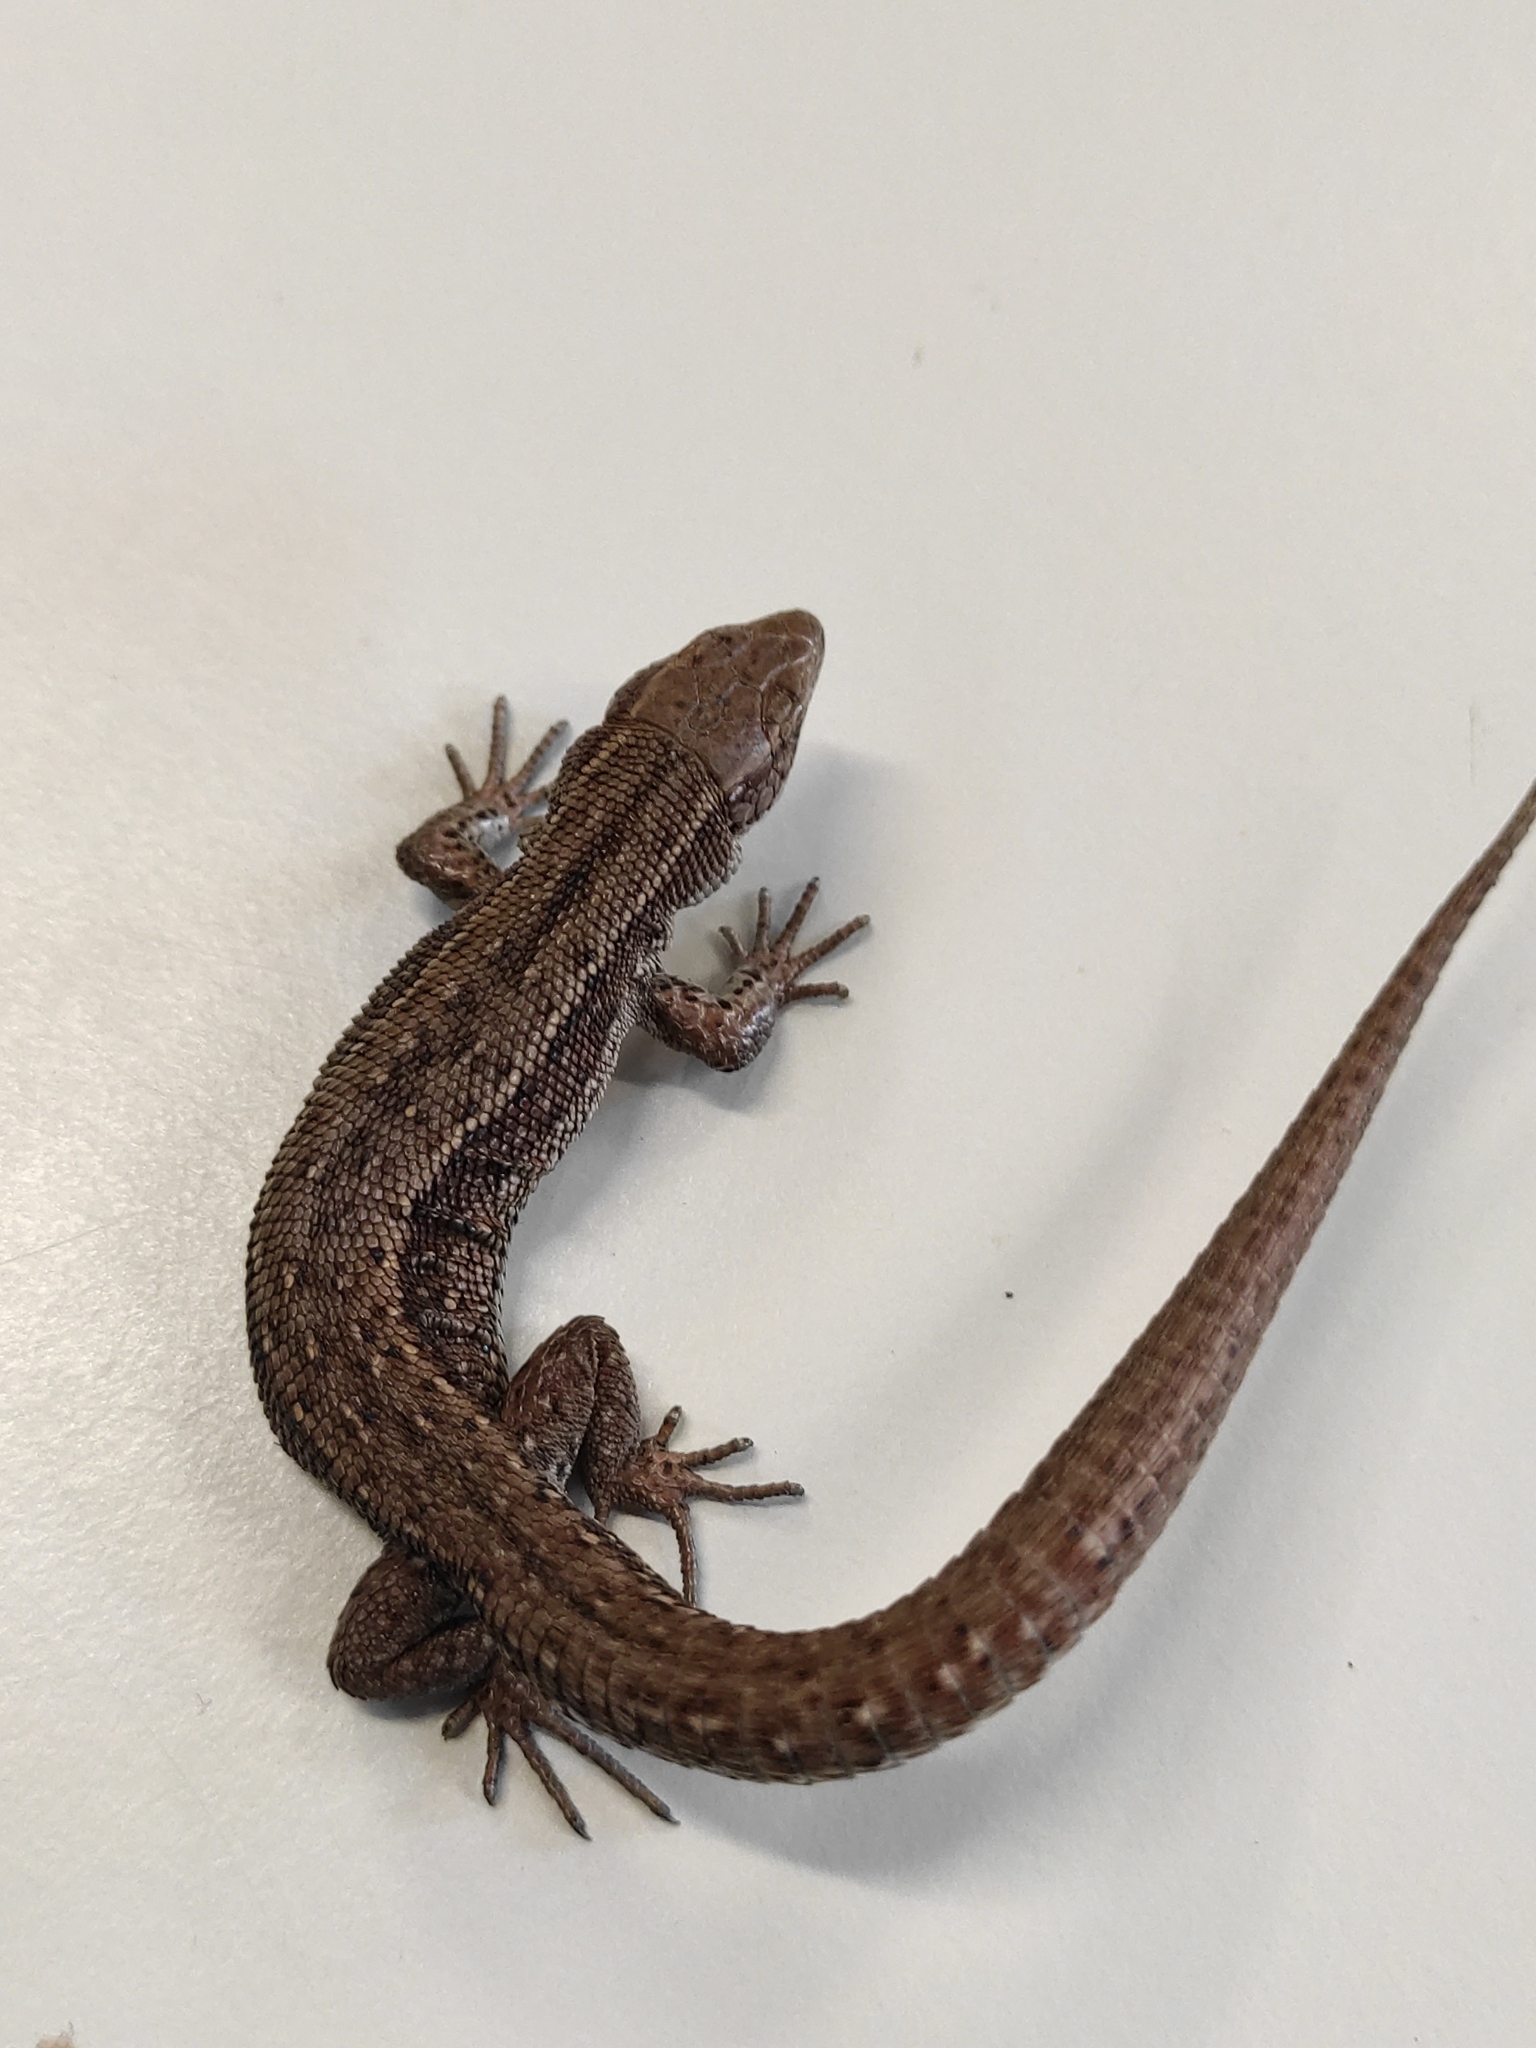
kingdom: Animalia
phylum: Chordata
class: Squamata
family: Lacertidae
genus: Zootoca
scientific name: Zootoca vivipara
